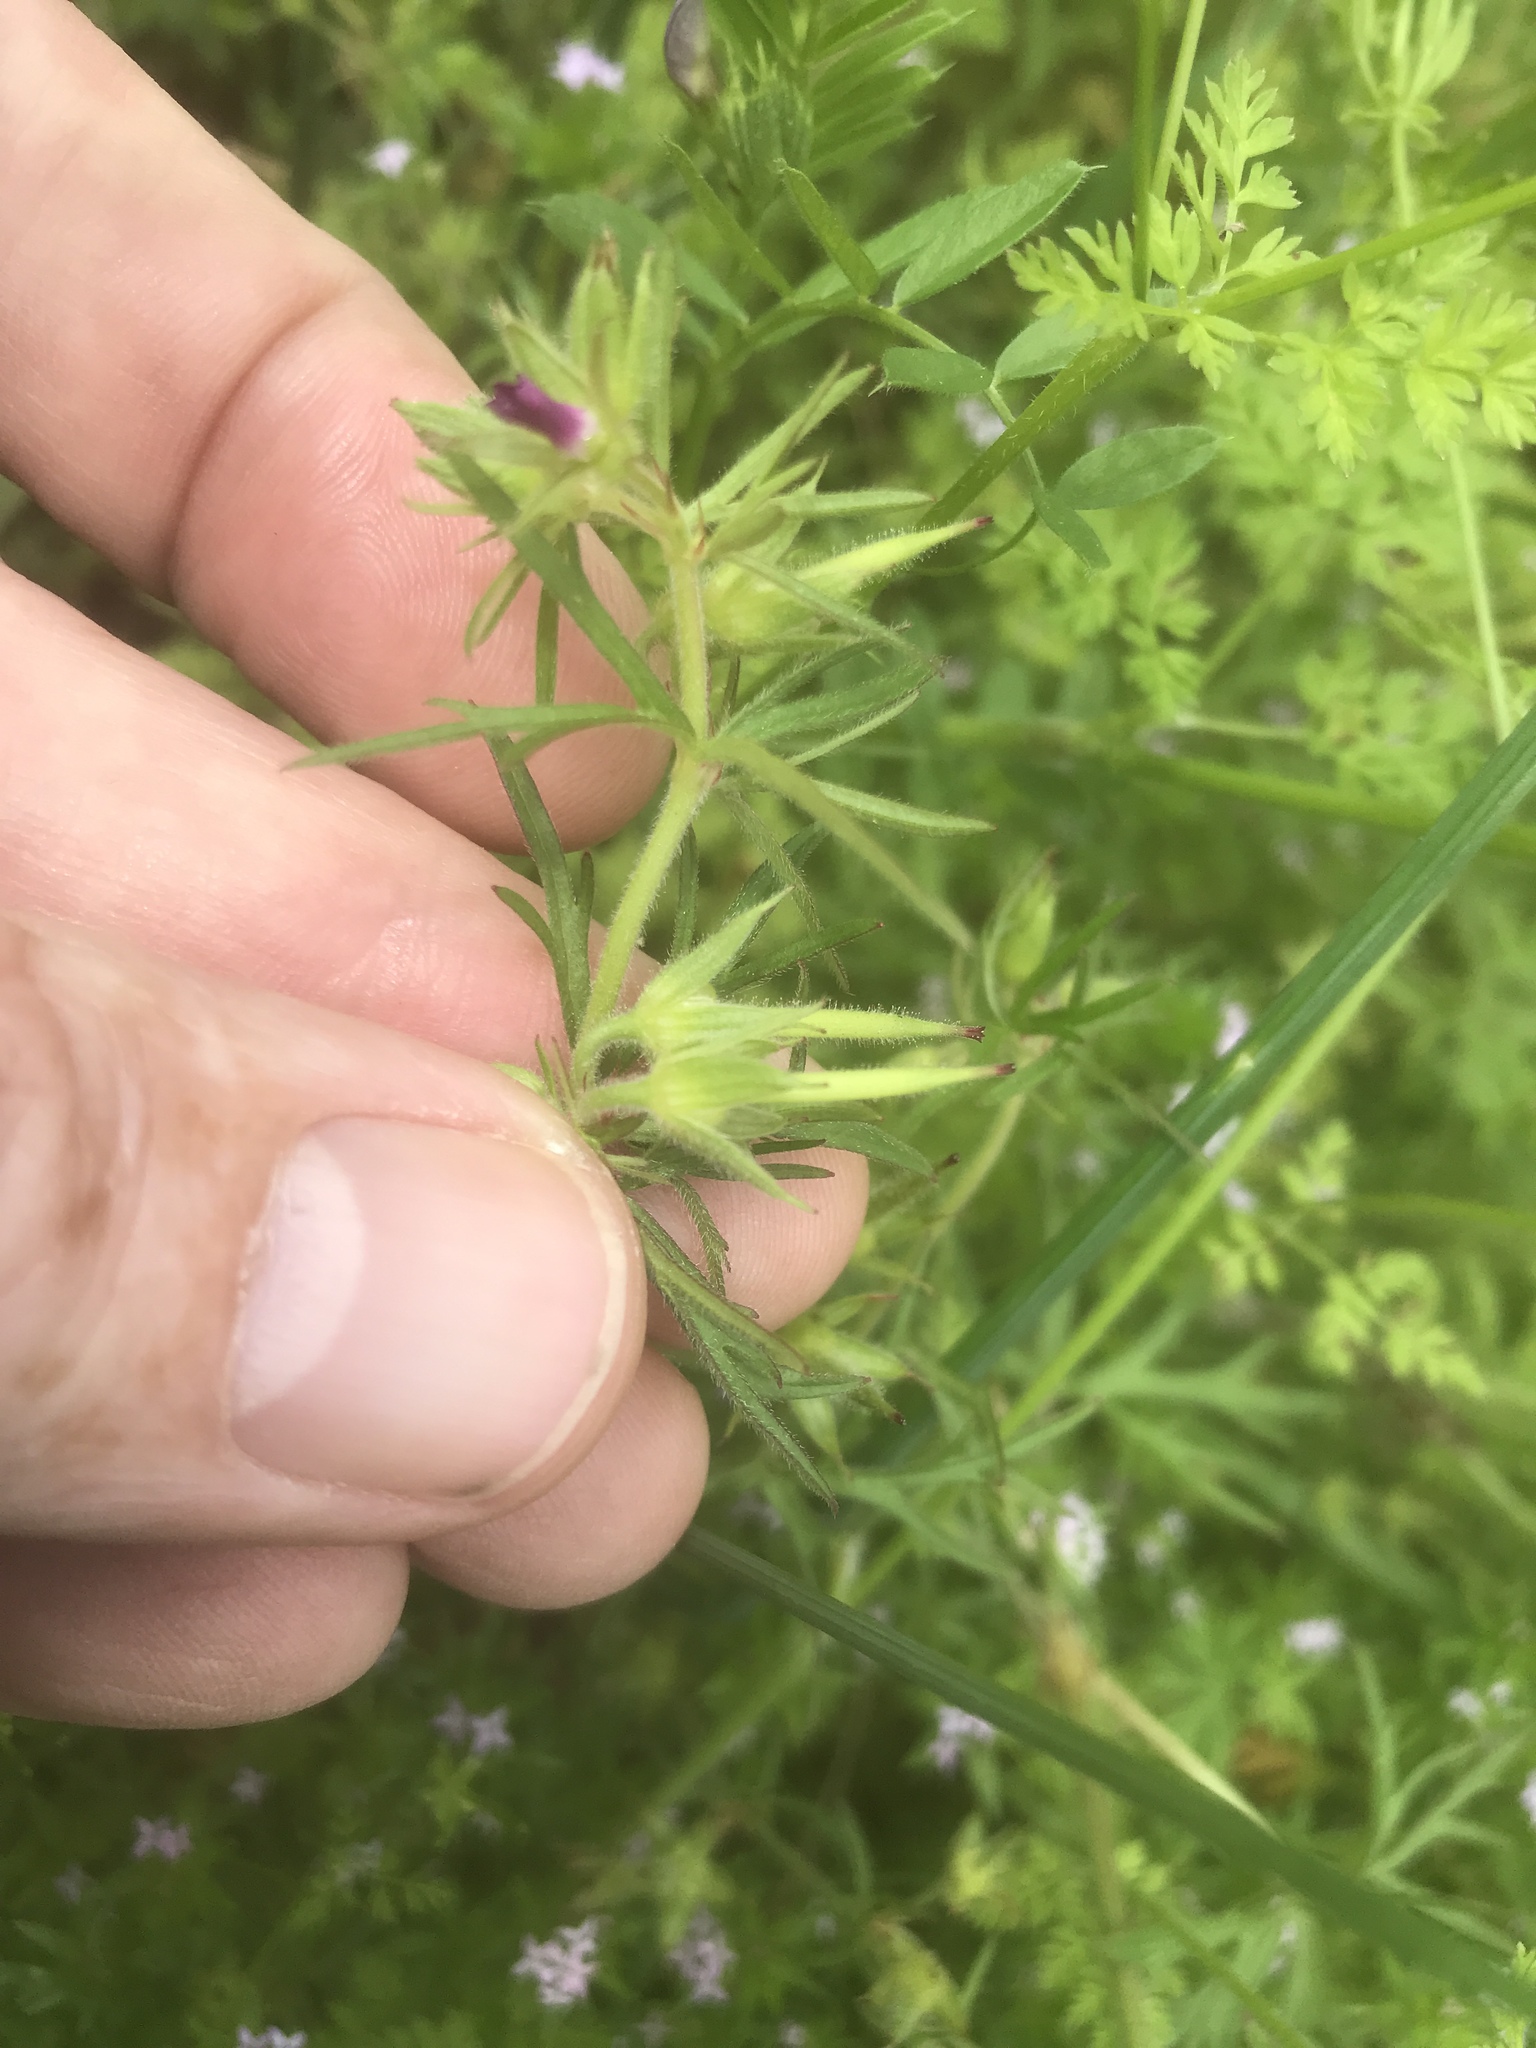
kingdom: Plantae
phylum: Tracheophyta
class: Magnoliopsida
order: Geraniales
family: Geraniaceae
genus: Geranium
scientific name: Geranium dissectum
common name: Cut-leaved crane's-bill
